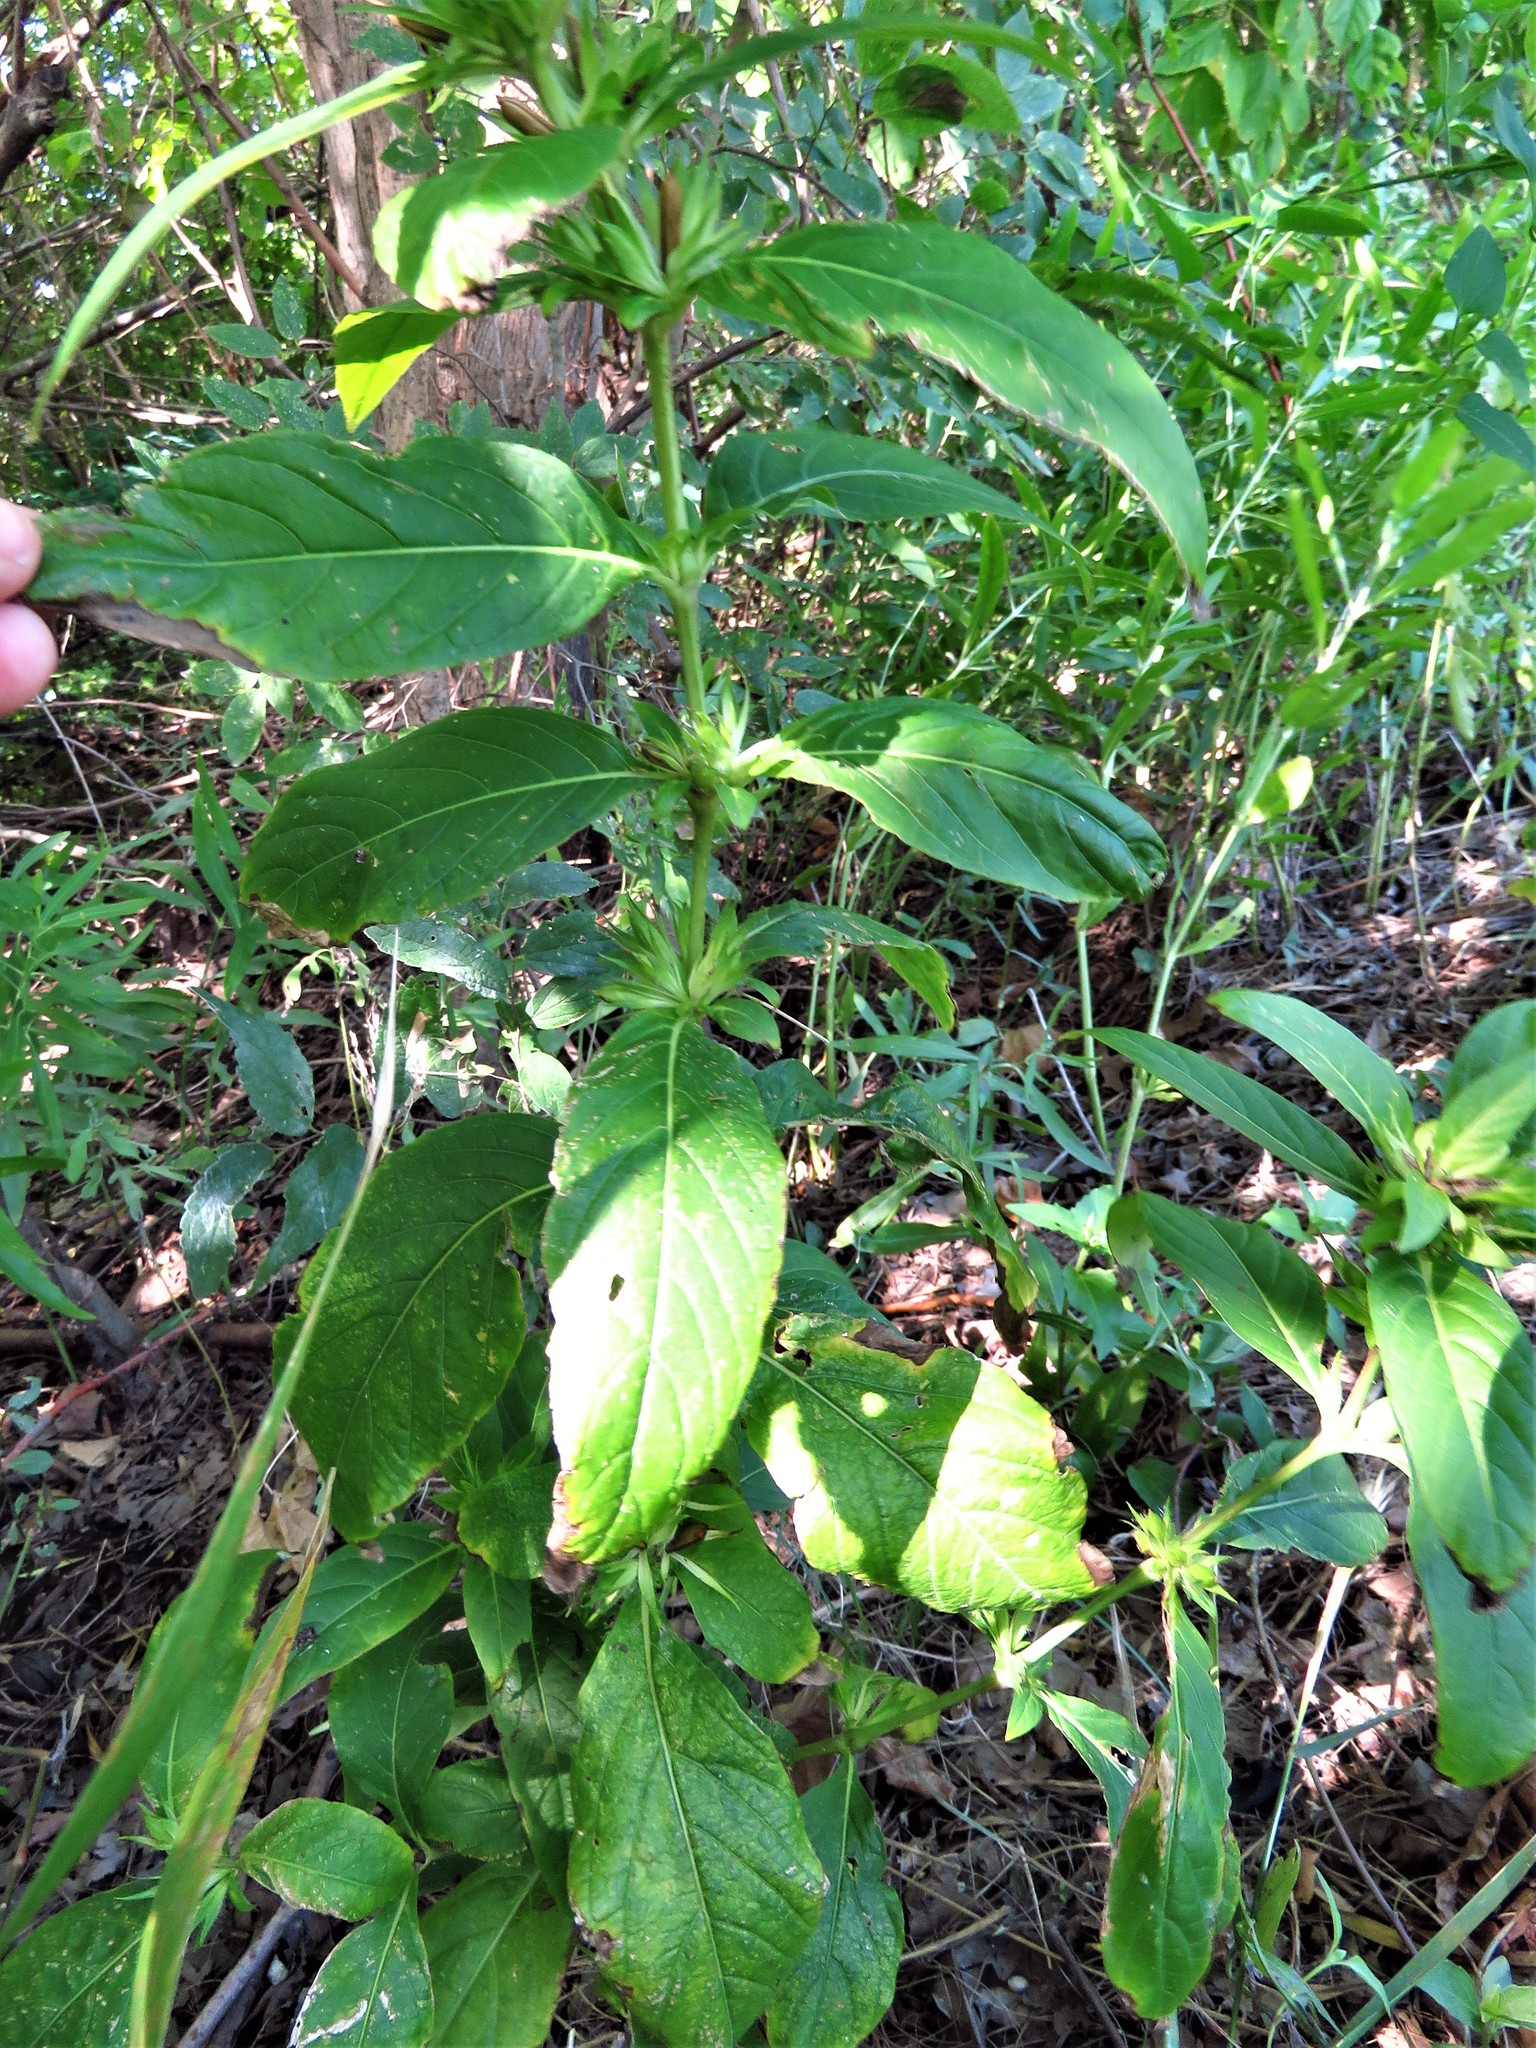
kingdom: Plantae
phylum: Tracheophyta
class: Magnoliopsida
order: Lamiales
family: Acanthaceae
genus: Ruellia
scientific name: Ruellia strepens
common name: Limestone wild petunia
